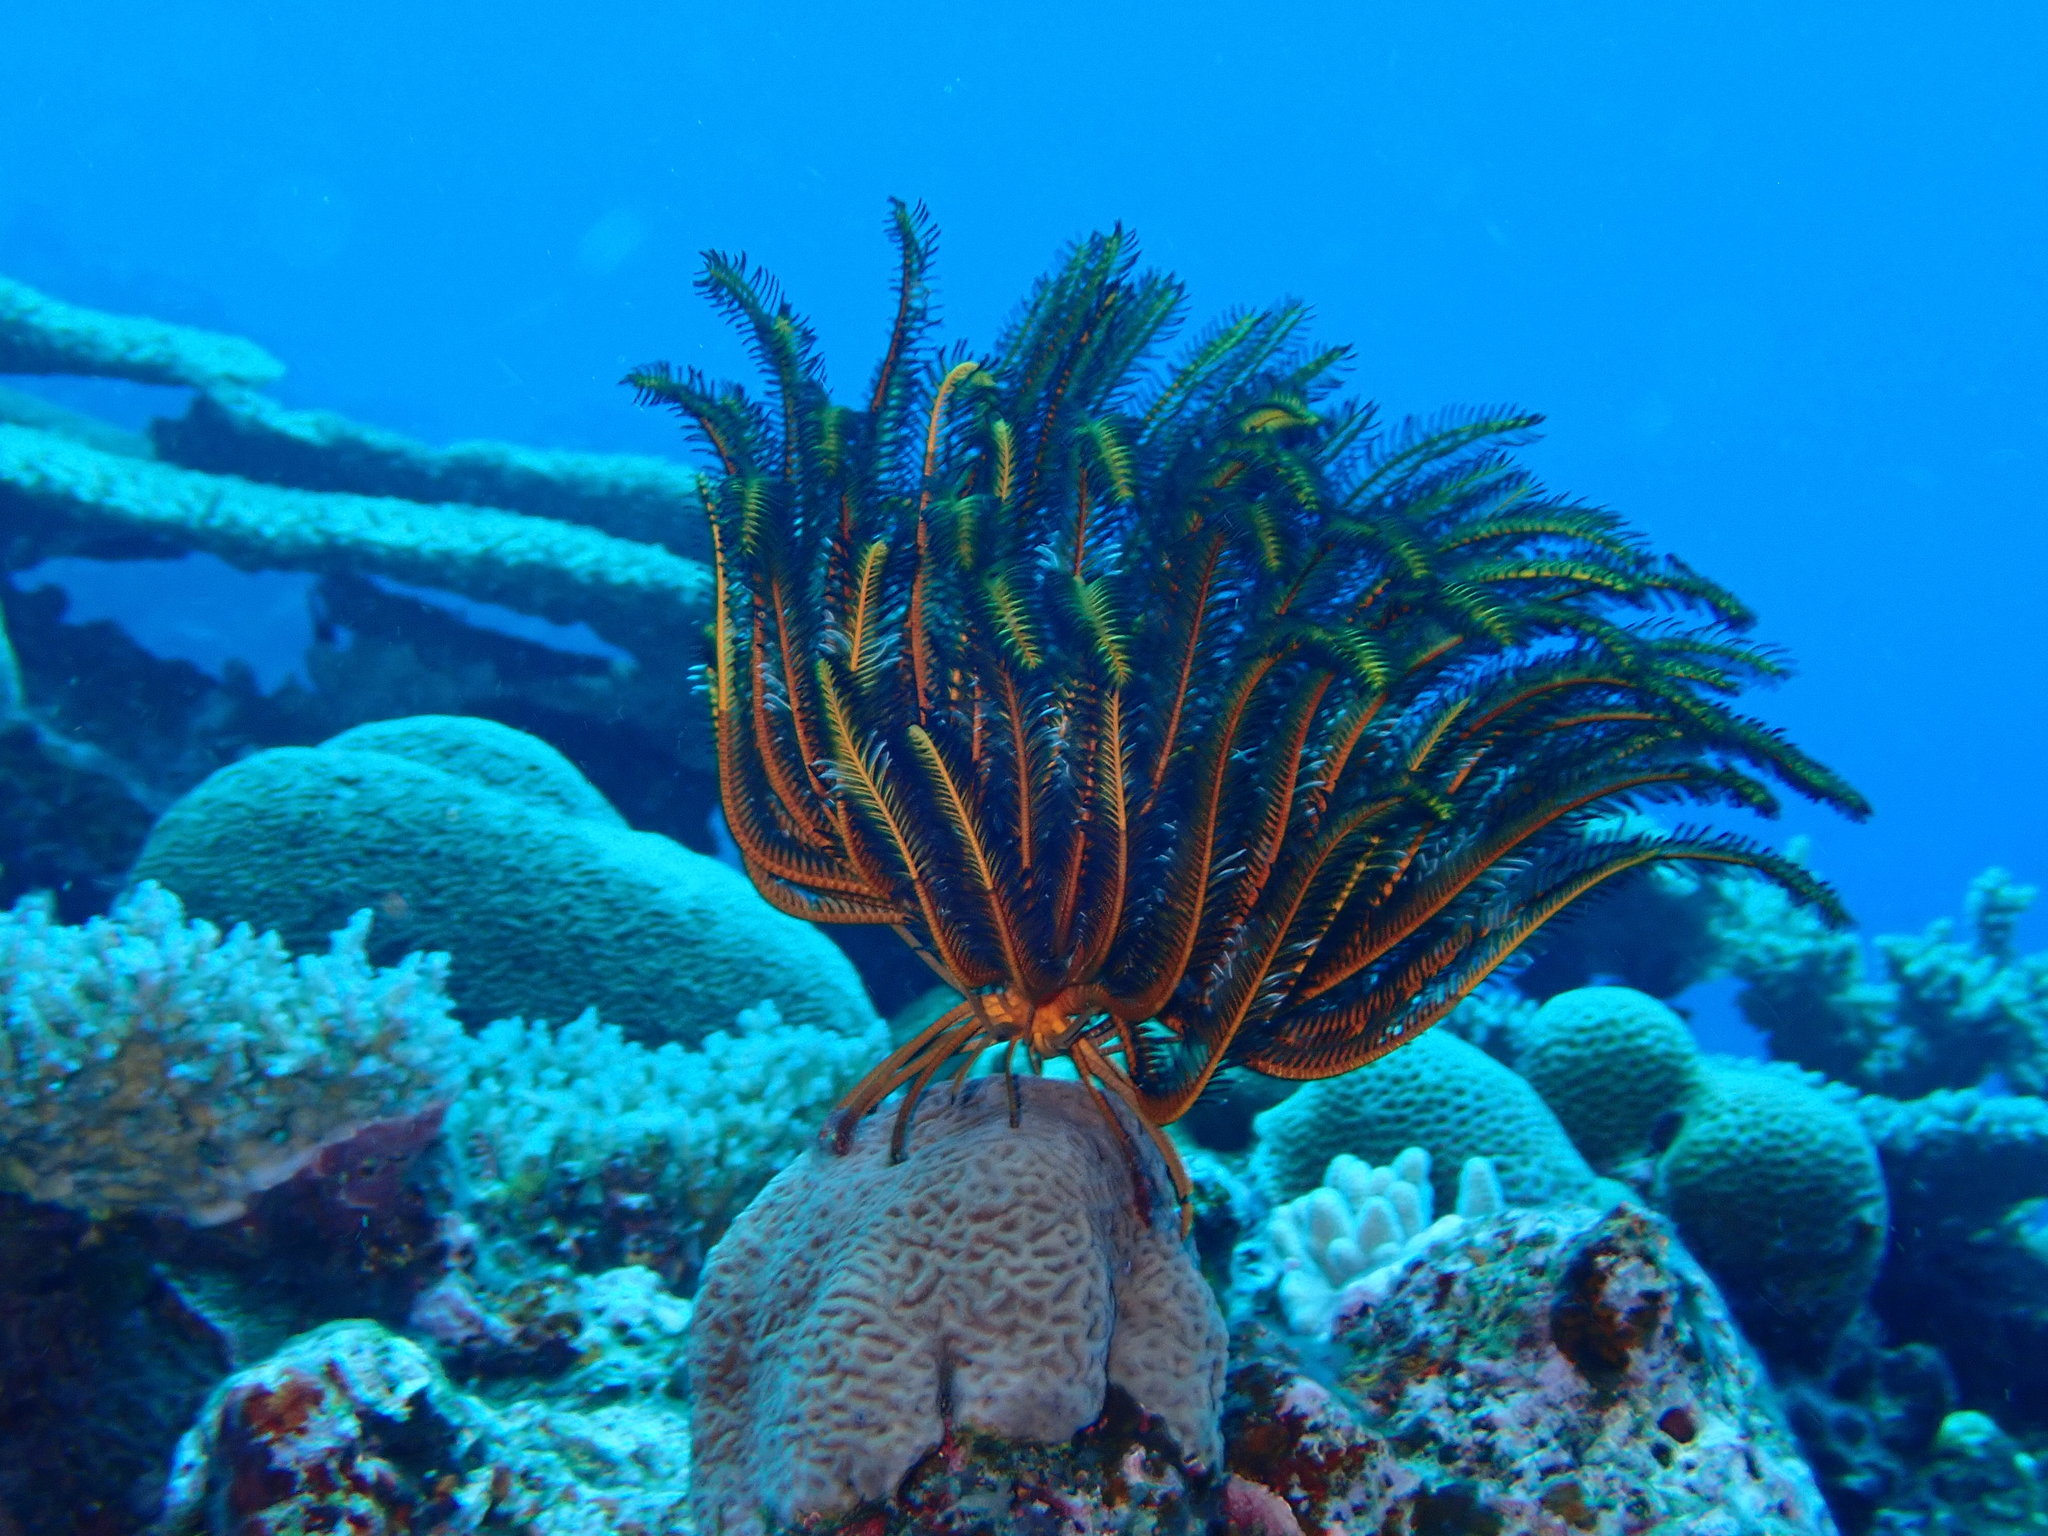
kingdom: Animalia
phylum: Echinodermata
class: Crinoidea
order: Comatulida
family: Comatulidae
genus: Anneissia
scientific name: Anneissia bennetti
